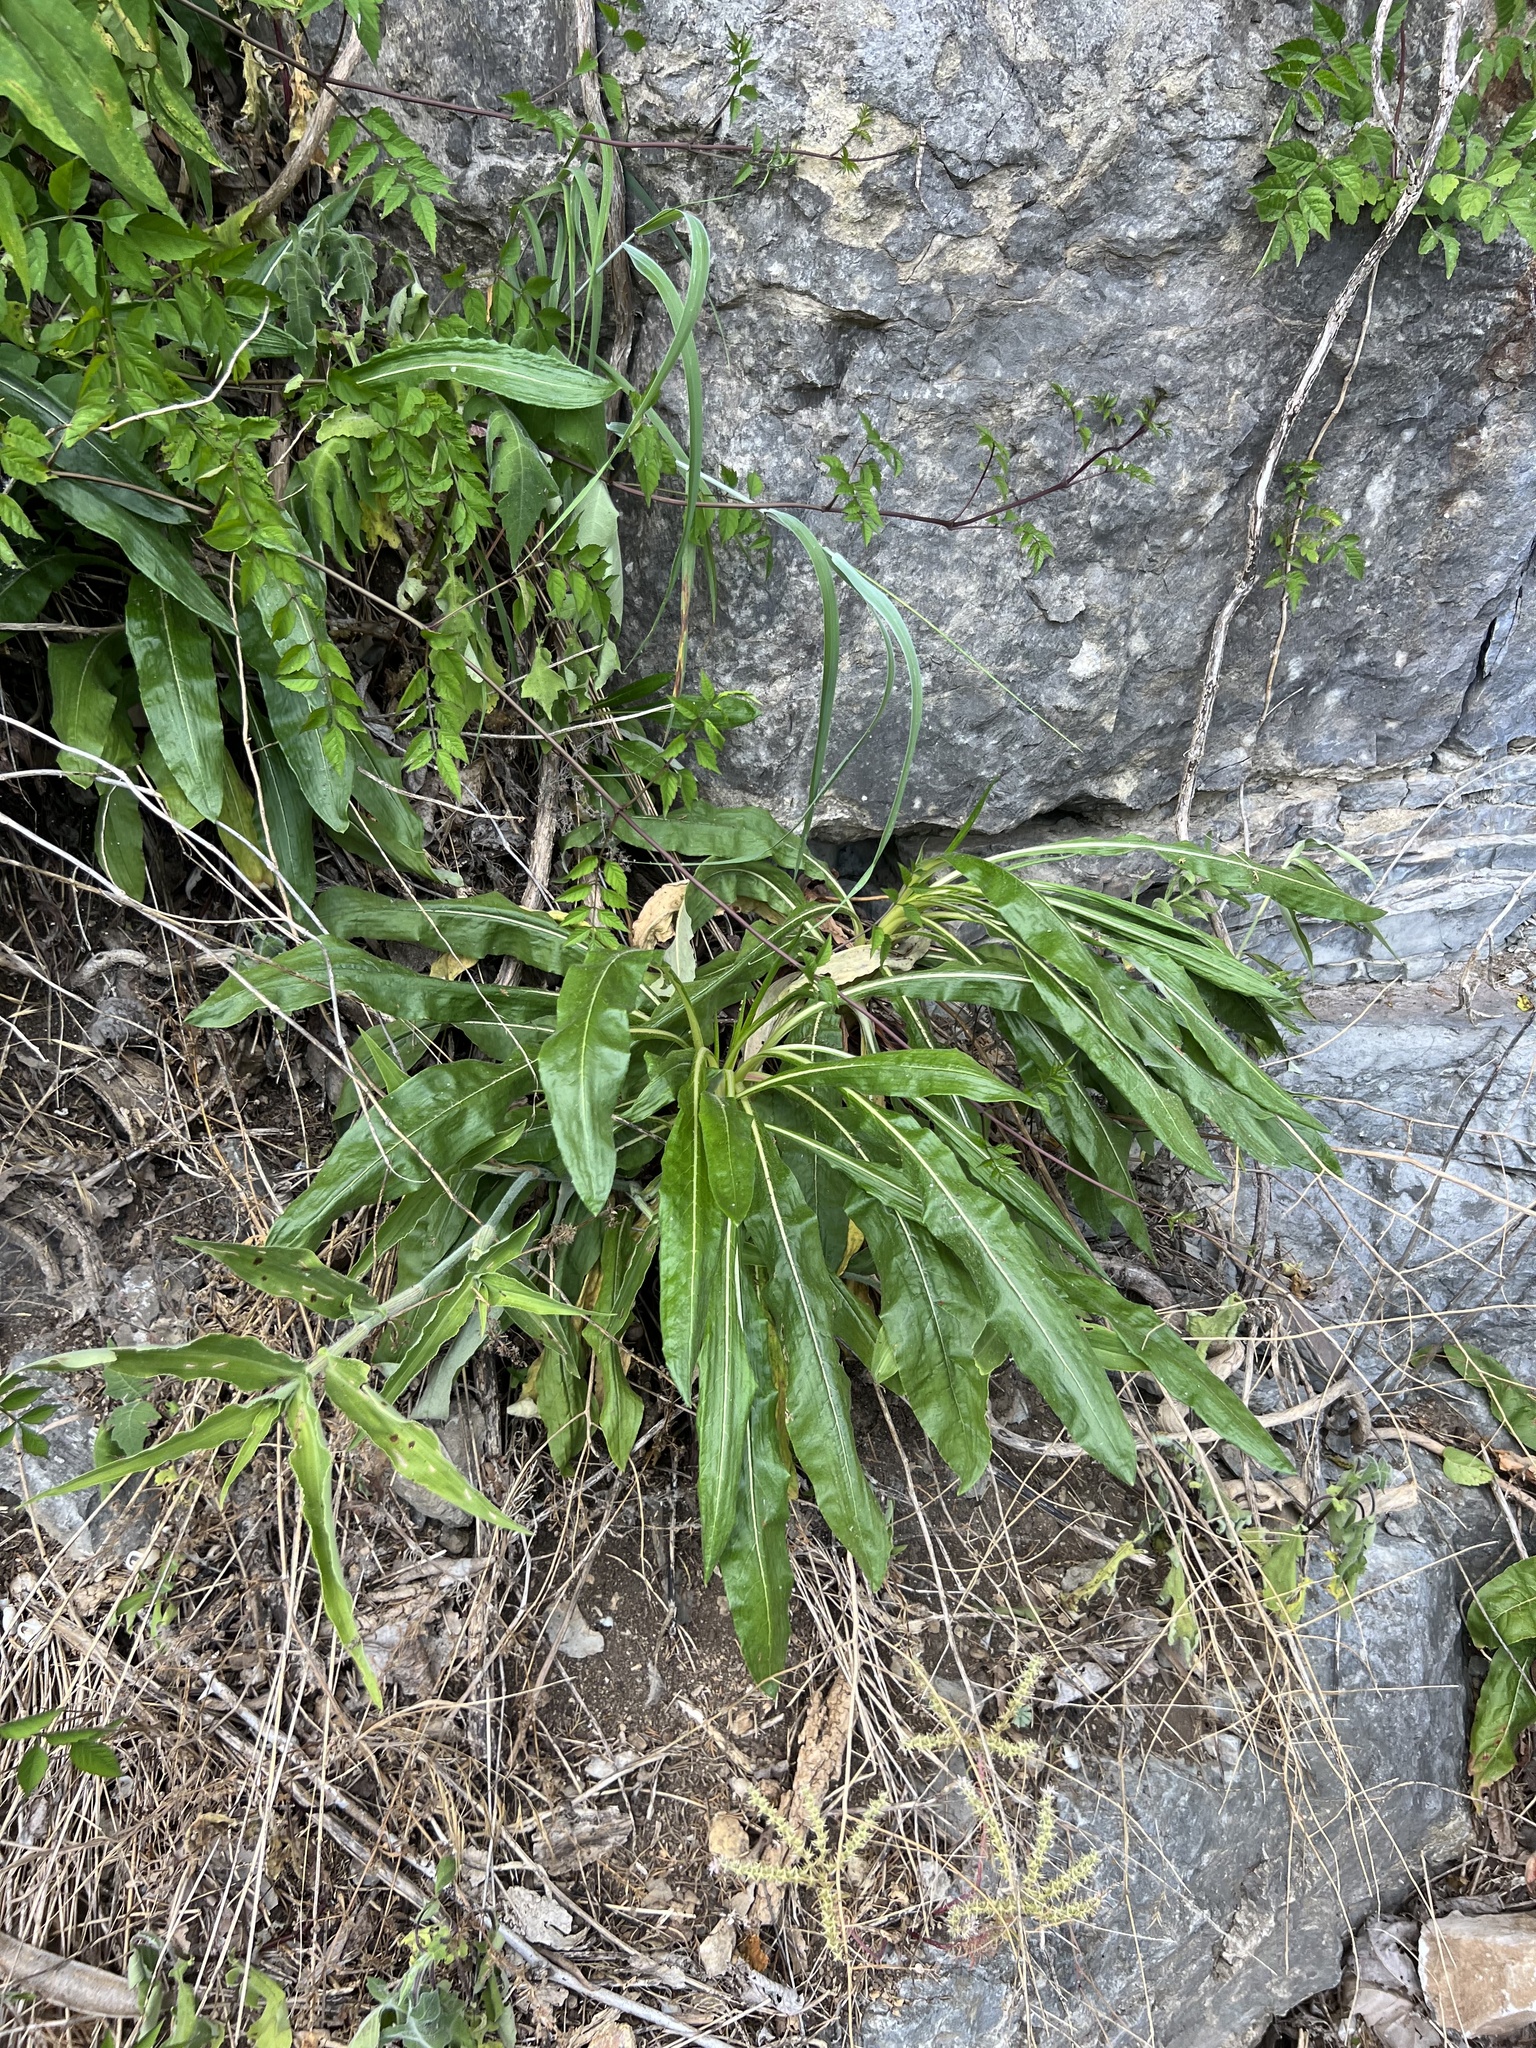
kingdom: Plantae
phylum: Tracheophyta
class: Magnoliopsida
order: Caryophyllales
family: Polygonaceae
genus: Eriogonum
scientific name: Eriogonum longifolium
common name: Longleaf wild buckwheat
